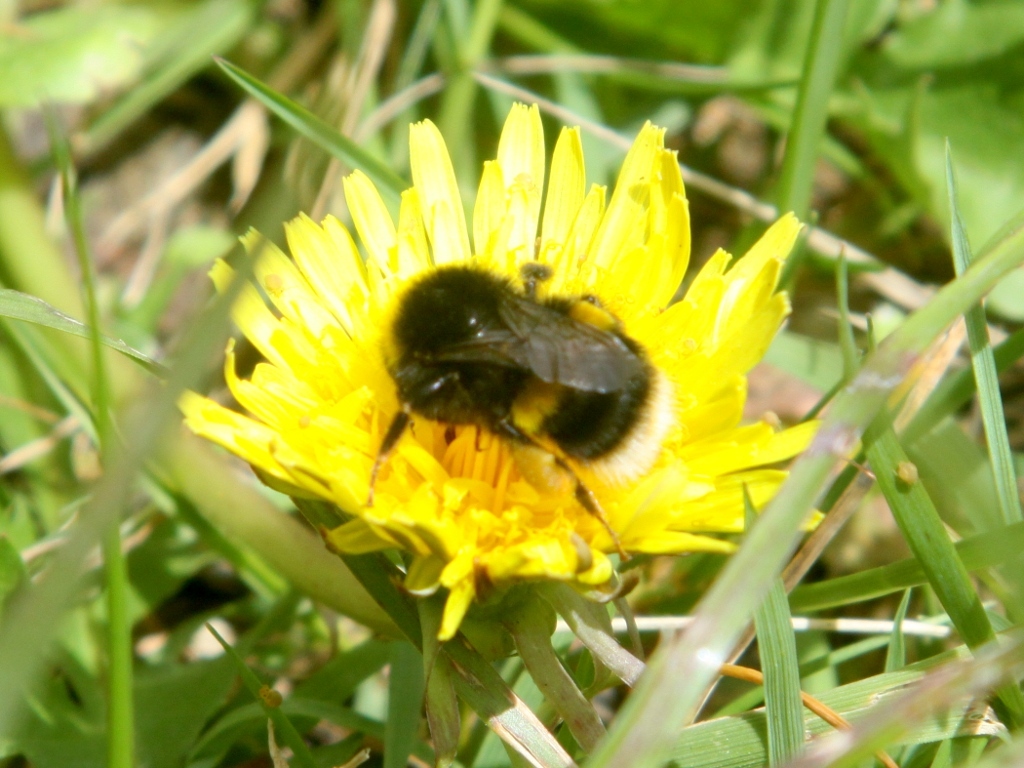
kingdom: Animalia
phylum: Arthropoda
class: Insecta
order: Hymenoptera
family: Apidae
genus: Bombus
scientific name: Bombus terrestris
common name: Buff-tailed bumblebee
